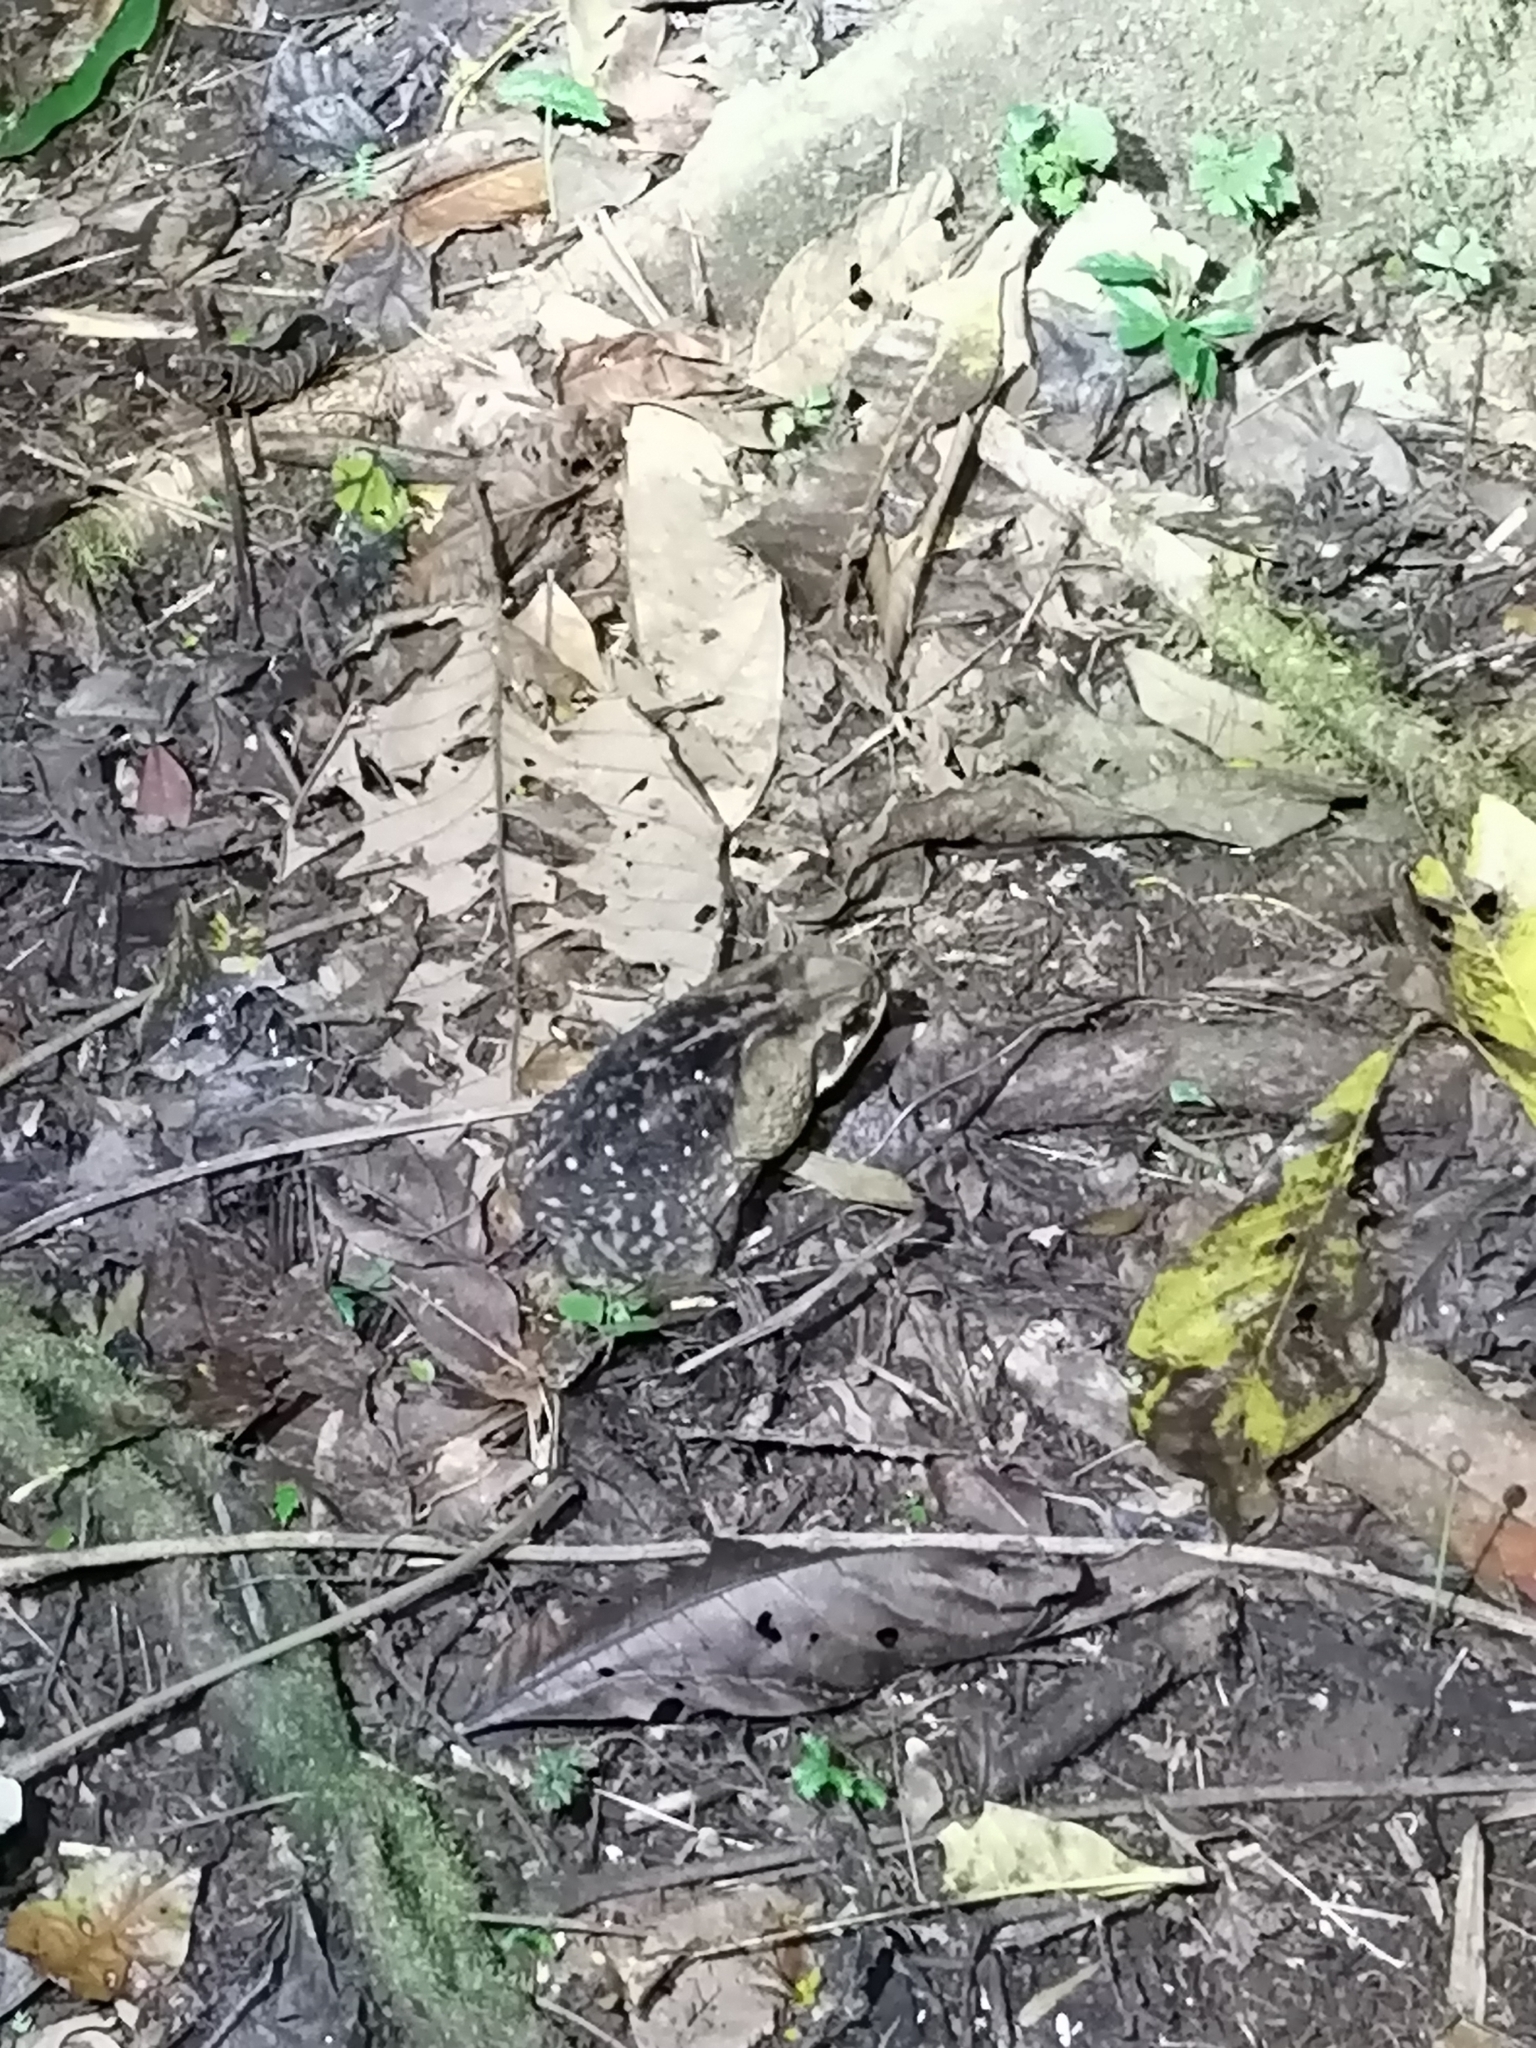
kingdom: Animalia
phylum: Chordata
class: Amphibia
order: Anura
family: Bufonidae
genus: Rhinella
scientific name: Rhinella horribilis
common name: Mesoamerican cane toad
